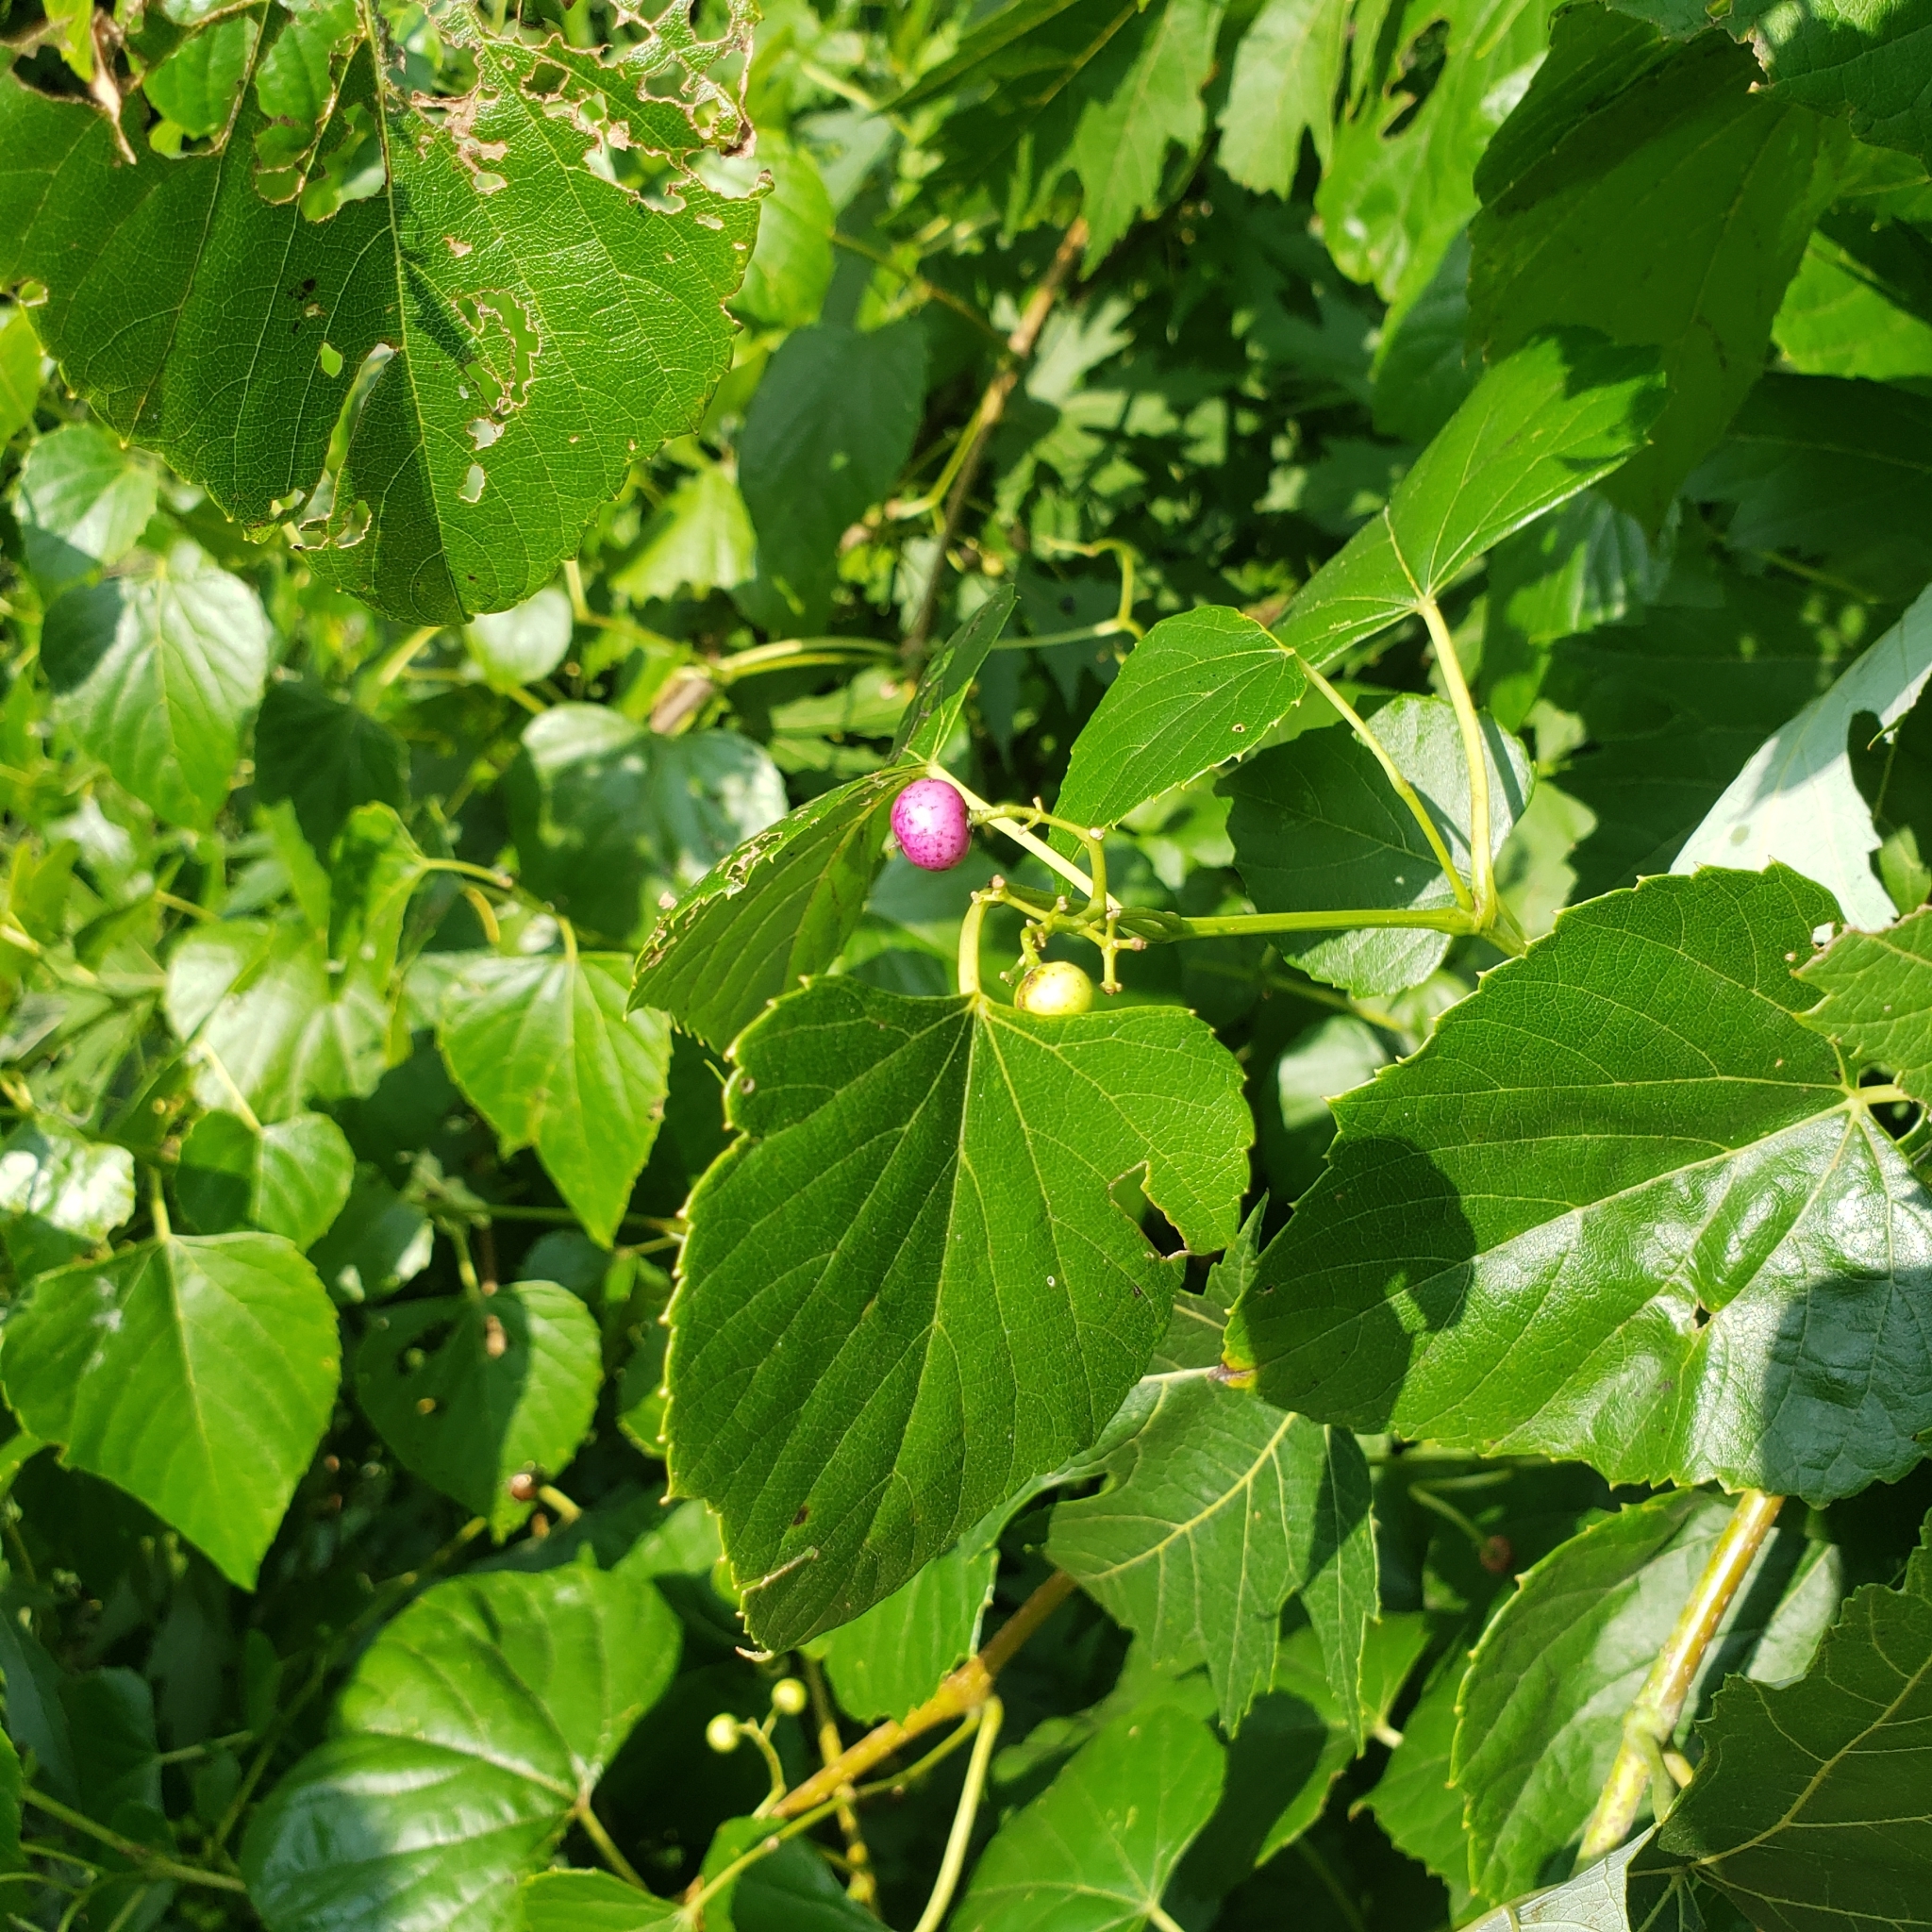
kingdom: Plantae
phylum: Tracheophyta
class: Magnoliopsida
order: Vitales
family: Vitaceae
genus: Ampelopsis
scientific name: Ampelopsis cordata
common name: Heart-leaf ampelopsis
